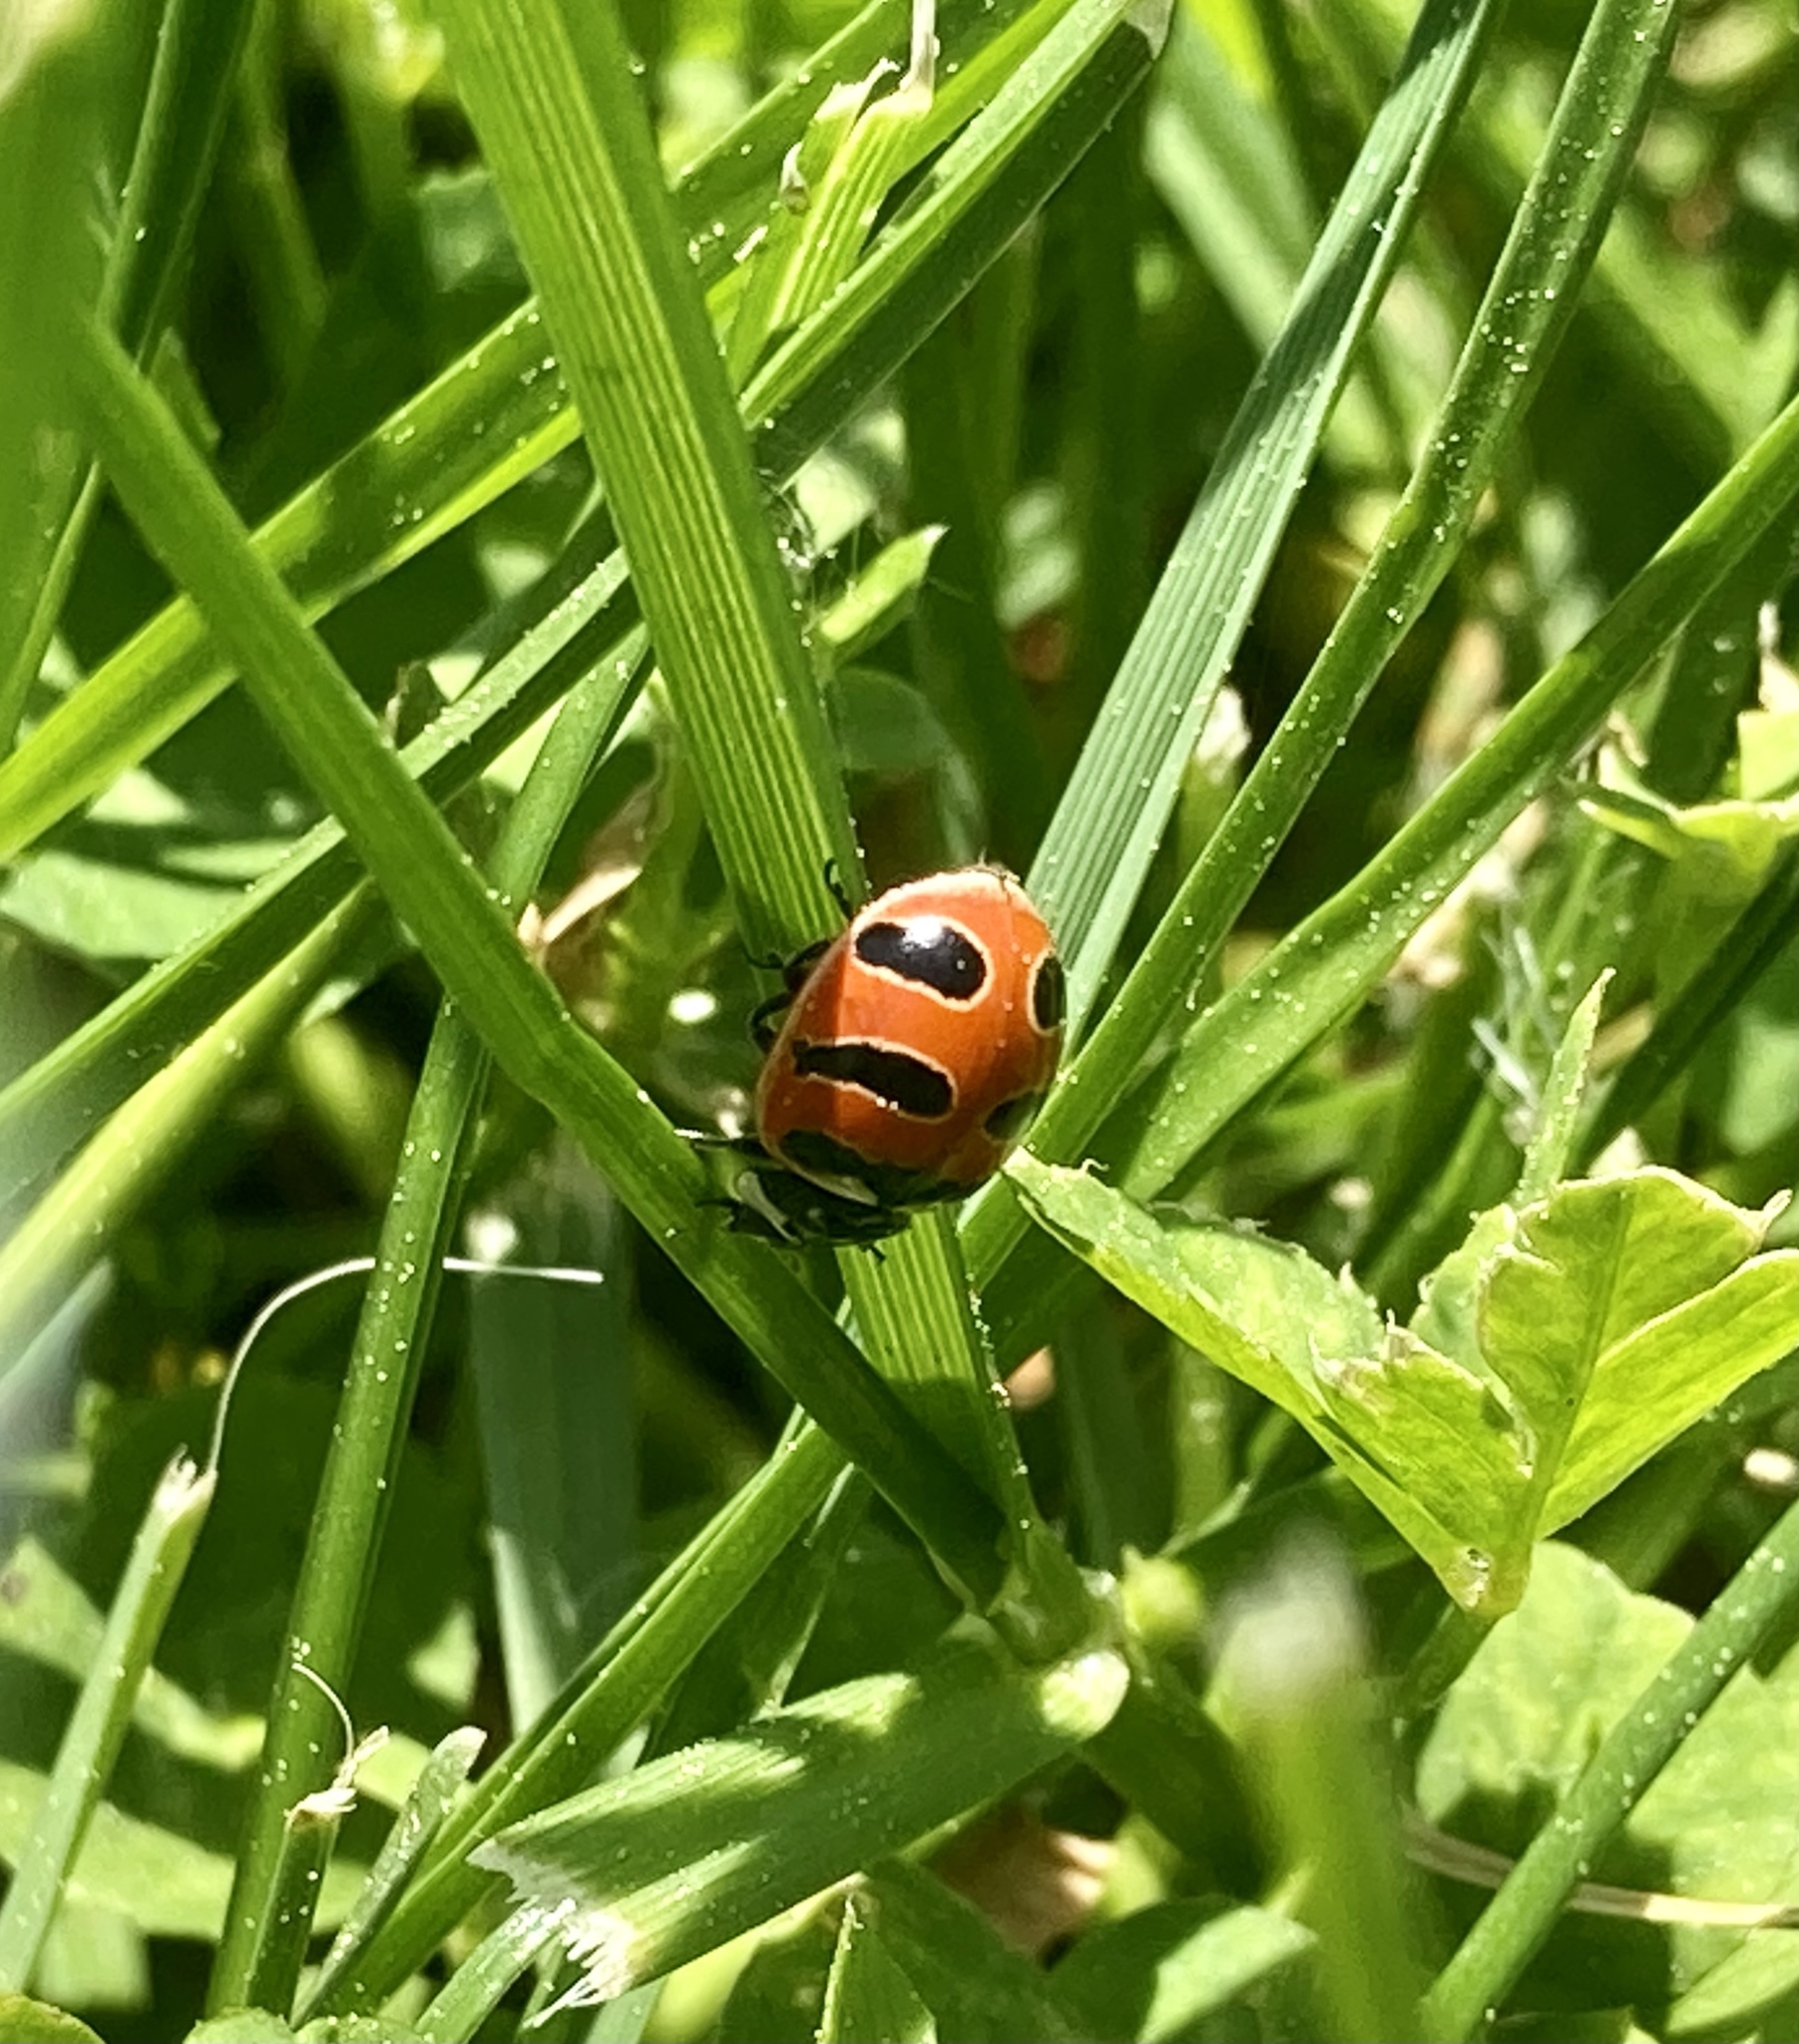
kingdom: Animalia
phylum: Arthropoda
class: Insecta
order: Coleoptera
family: Coccinellidae
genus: Coccinella
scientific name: Coccinella trifasciata
